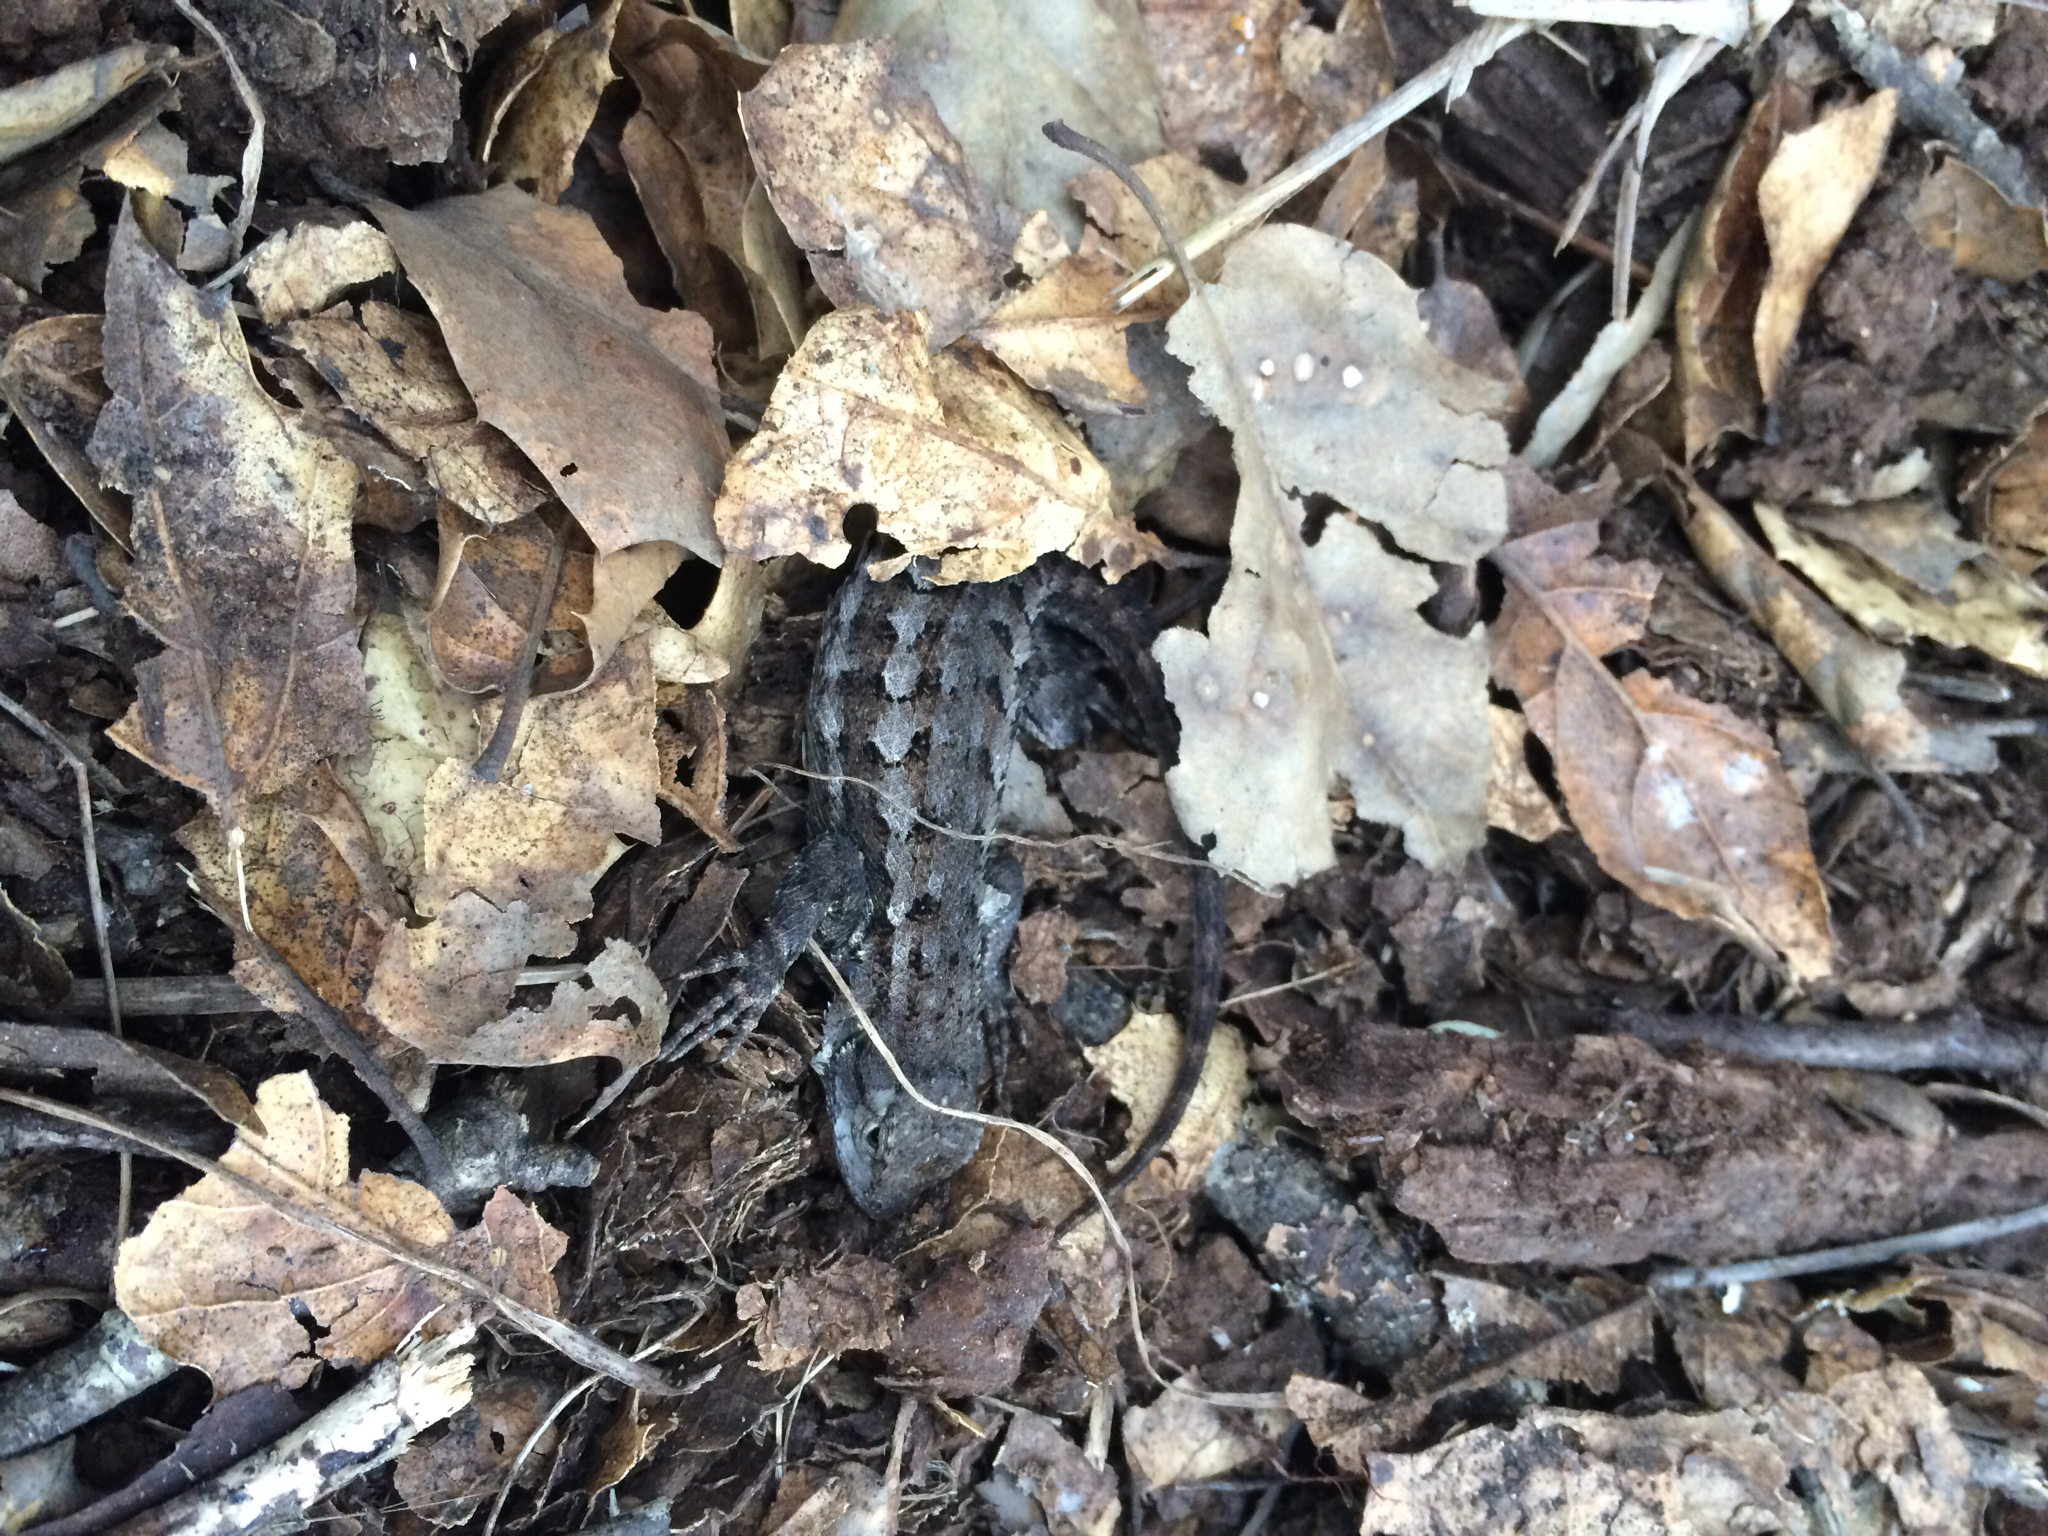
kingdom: Animalia
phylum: Chordata
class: Squamata
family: Phrynosomatidae
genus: Sceloporus
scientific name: Sceloporus occidentalis
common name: Western fence lizard
